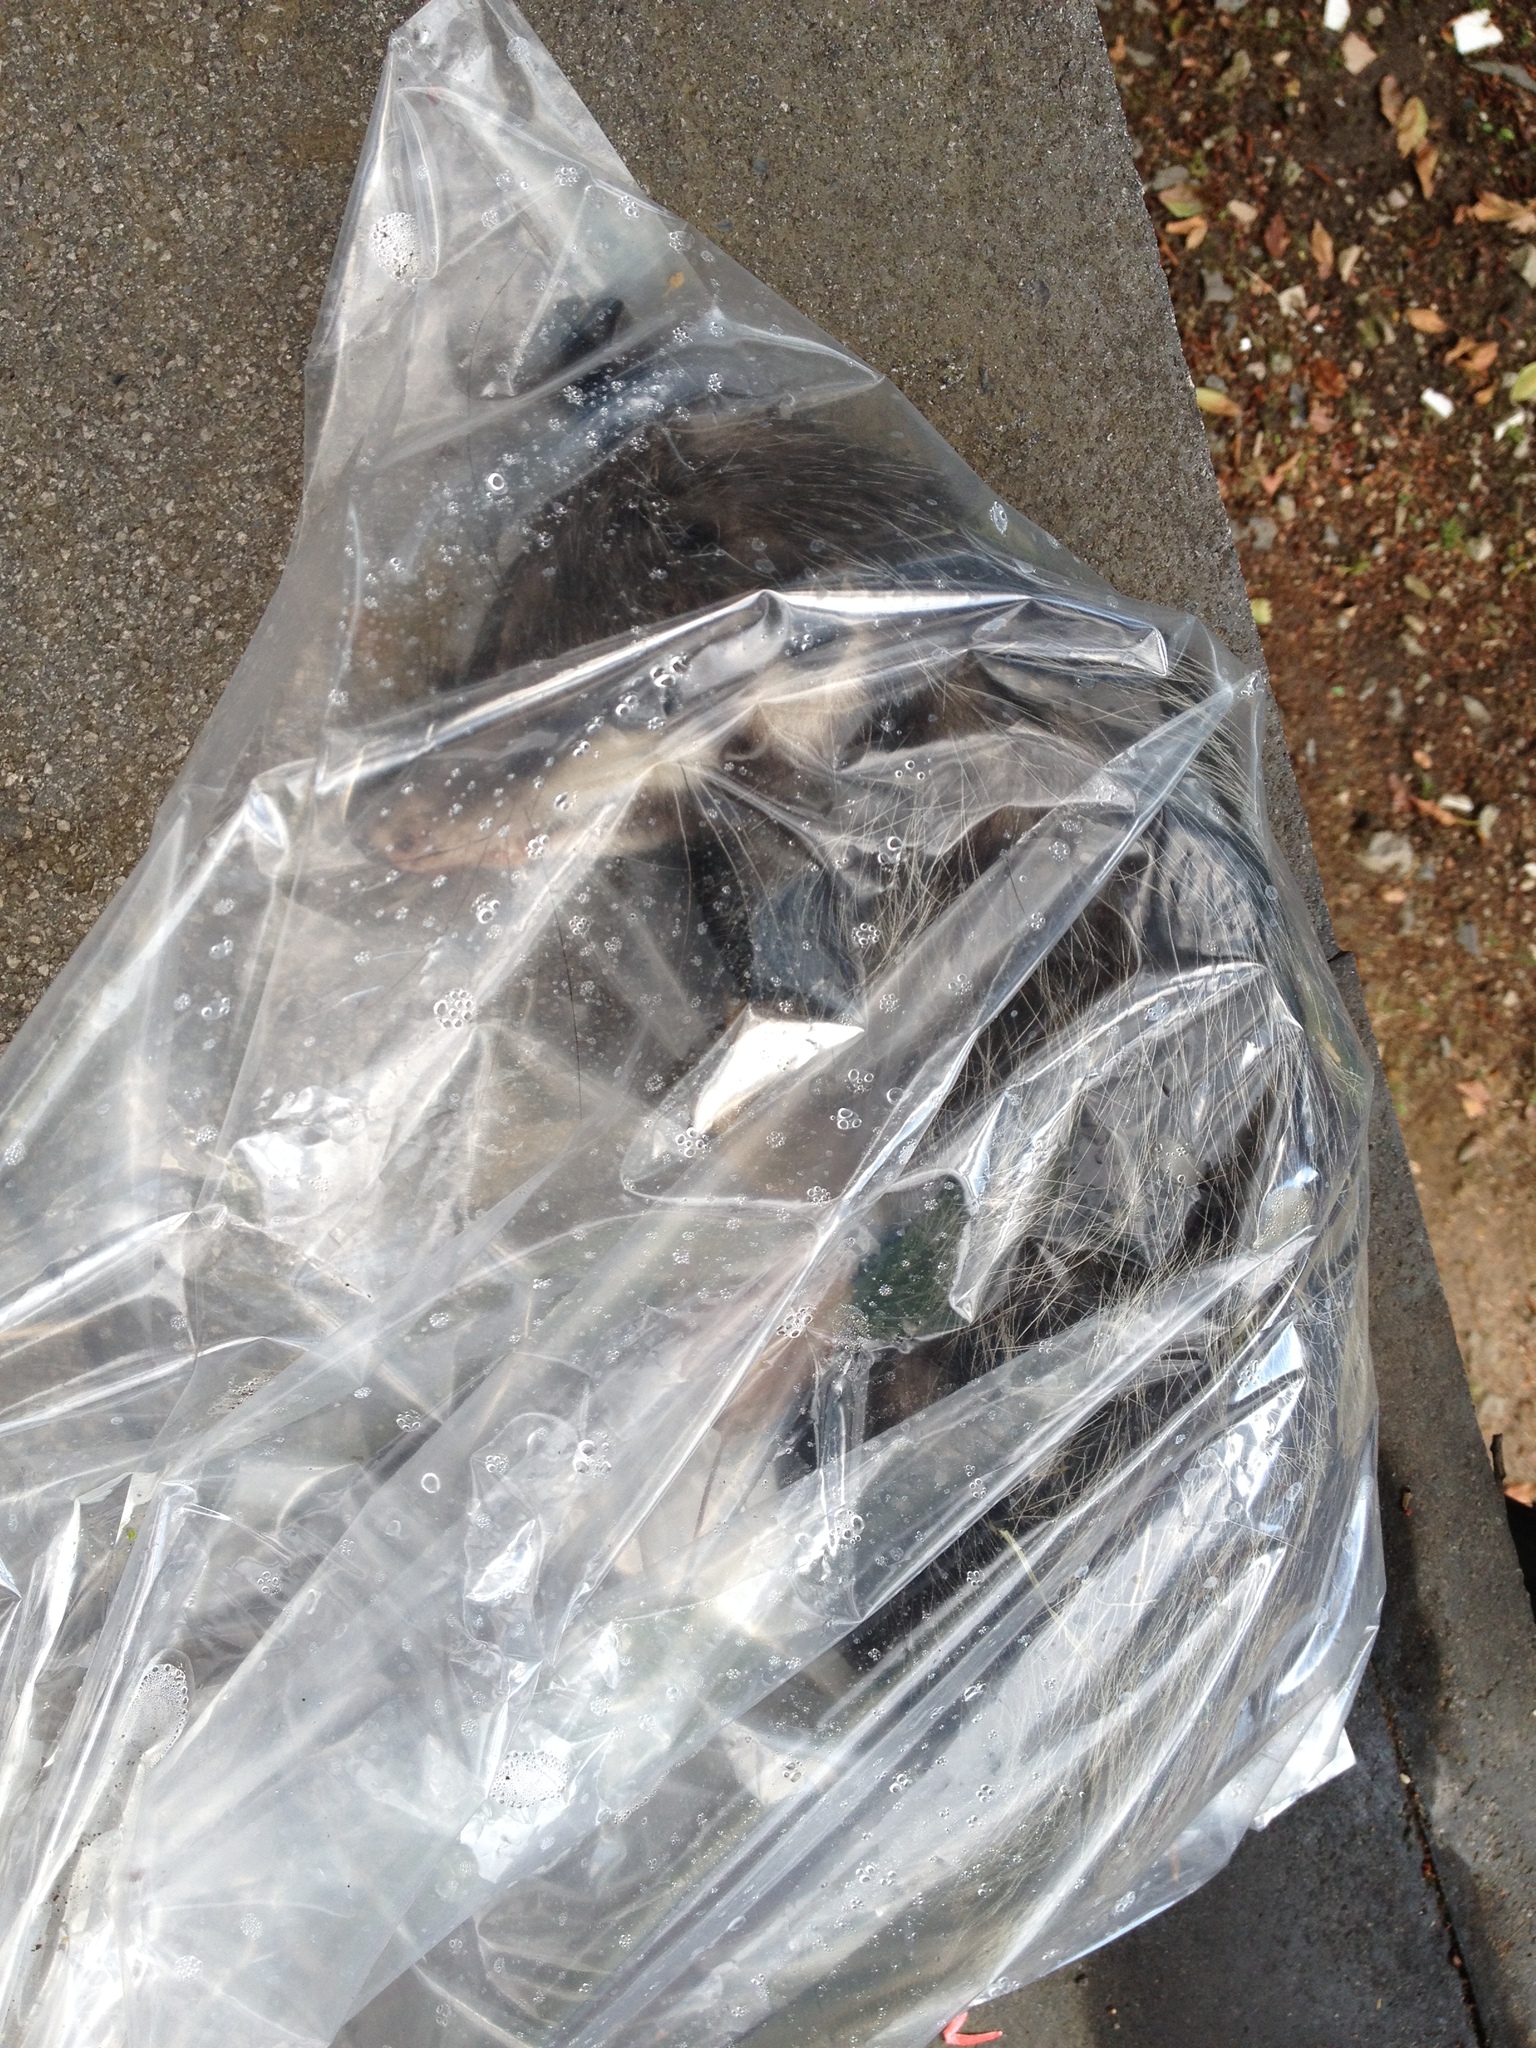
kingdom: Animalia
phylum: Chordata
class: Mammalia
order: Didelphimorphia
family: Didelphidae
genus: Didelphis
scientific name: Didelphis virginiana
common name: Virginia opossum
